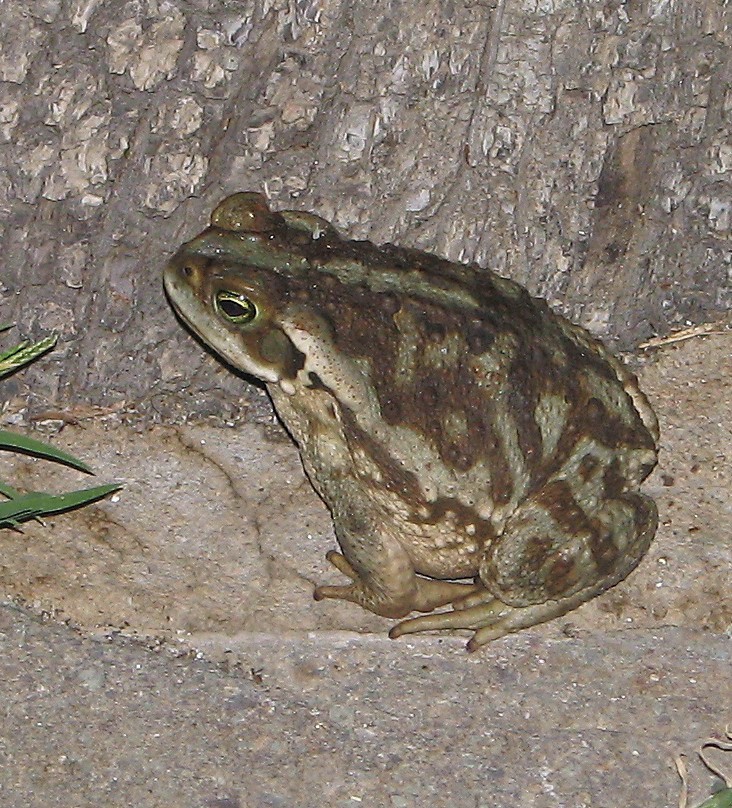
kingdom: Animalia
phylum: Chordata
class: Amphibia
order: Anura
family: Bufonidae
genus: Rhinella
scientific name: Rhinella arenarum
